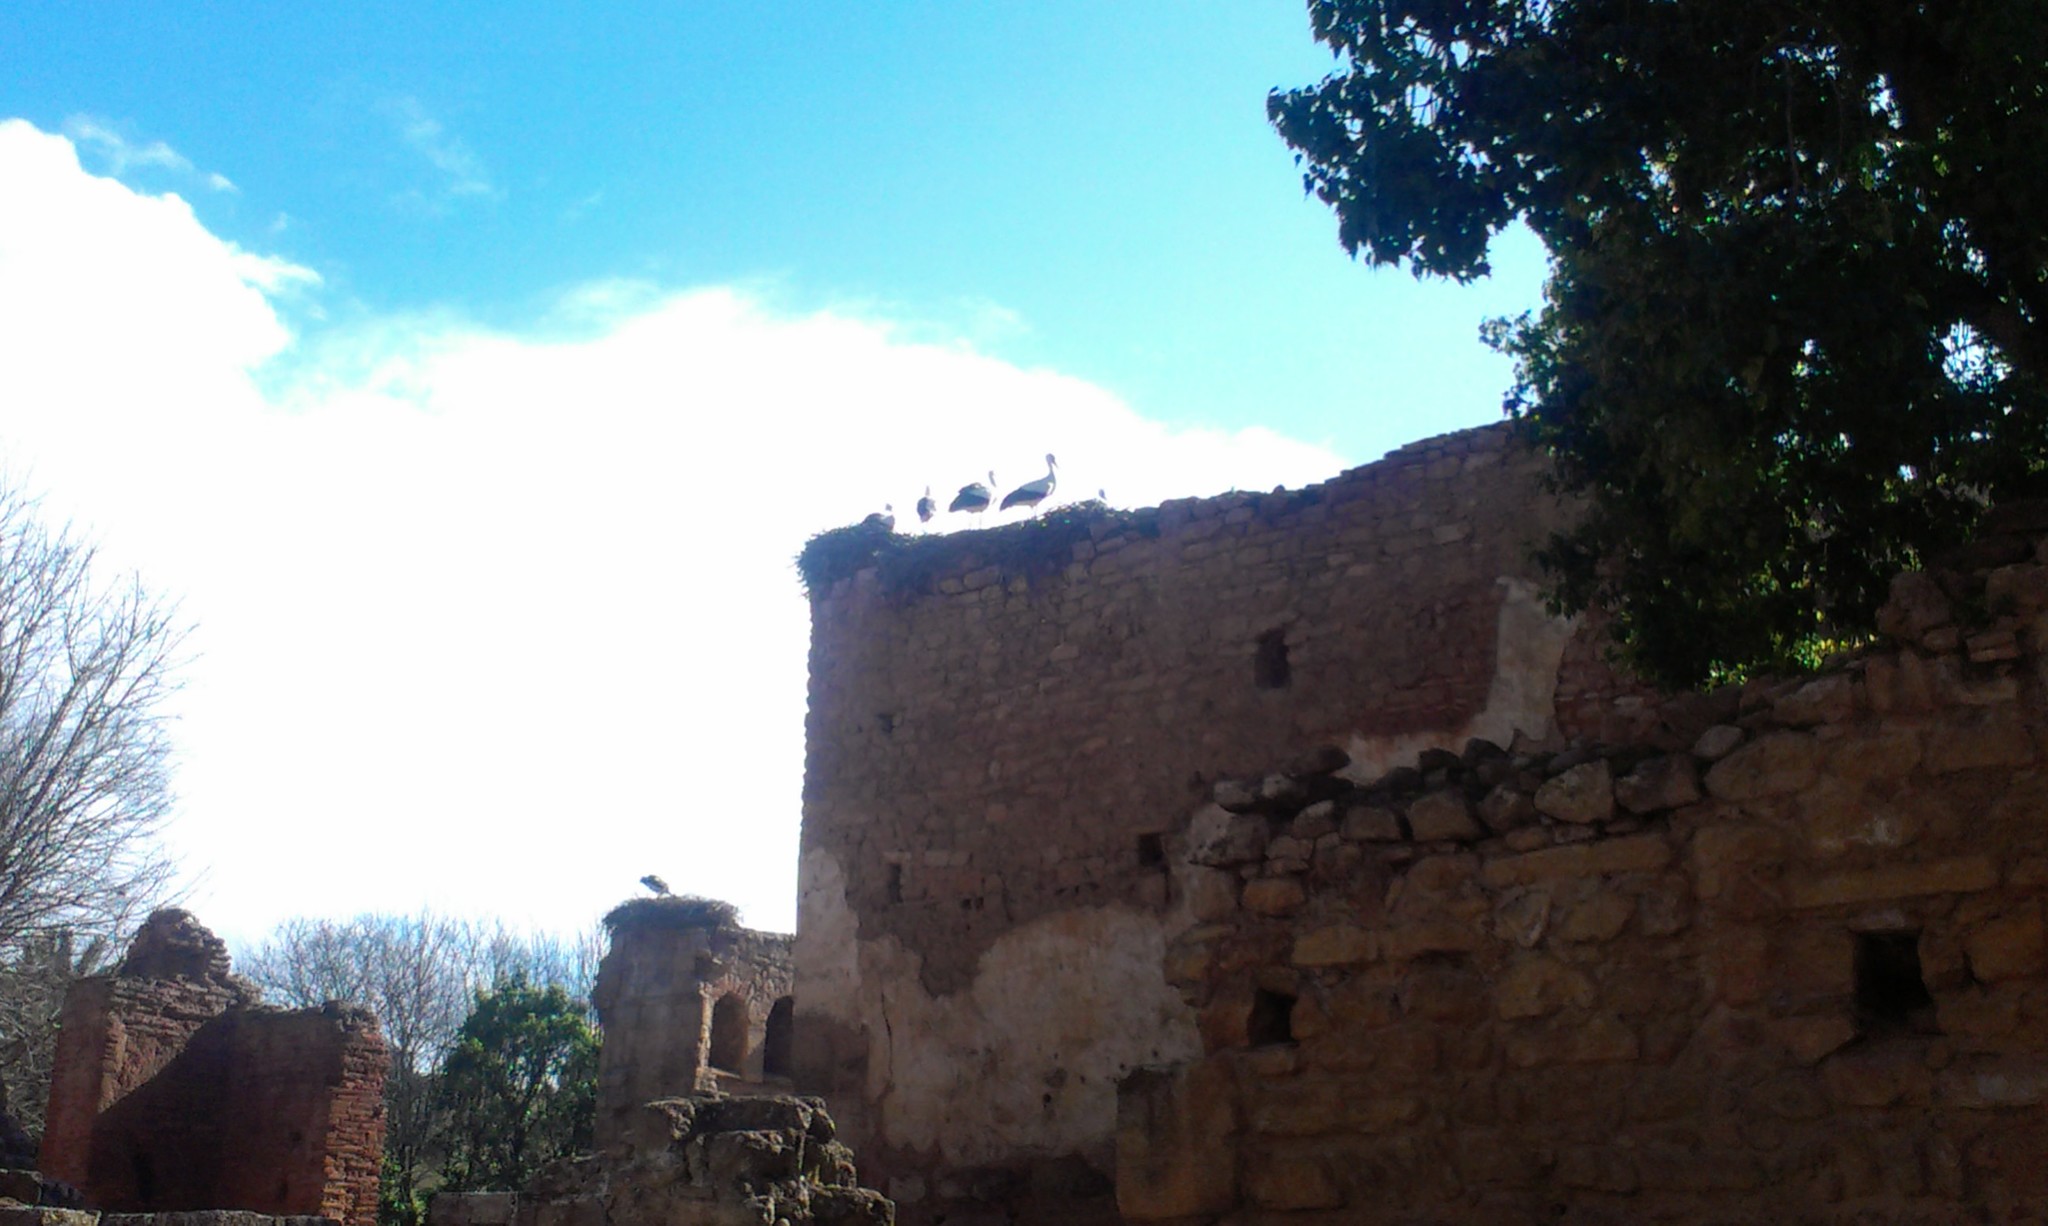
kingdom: Animalia
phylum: Chordata
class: Aves
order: Ciconiiformes
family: Ciconiidae
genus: Ciconia
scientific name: Ciconia ciconia
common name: White stork
